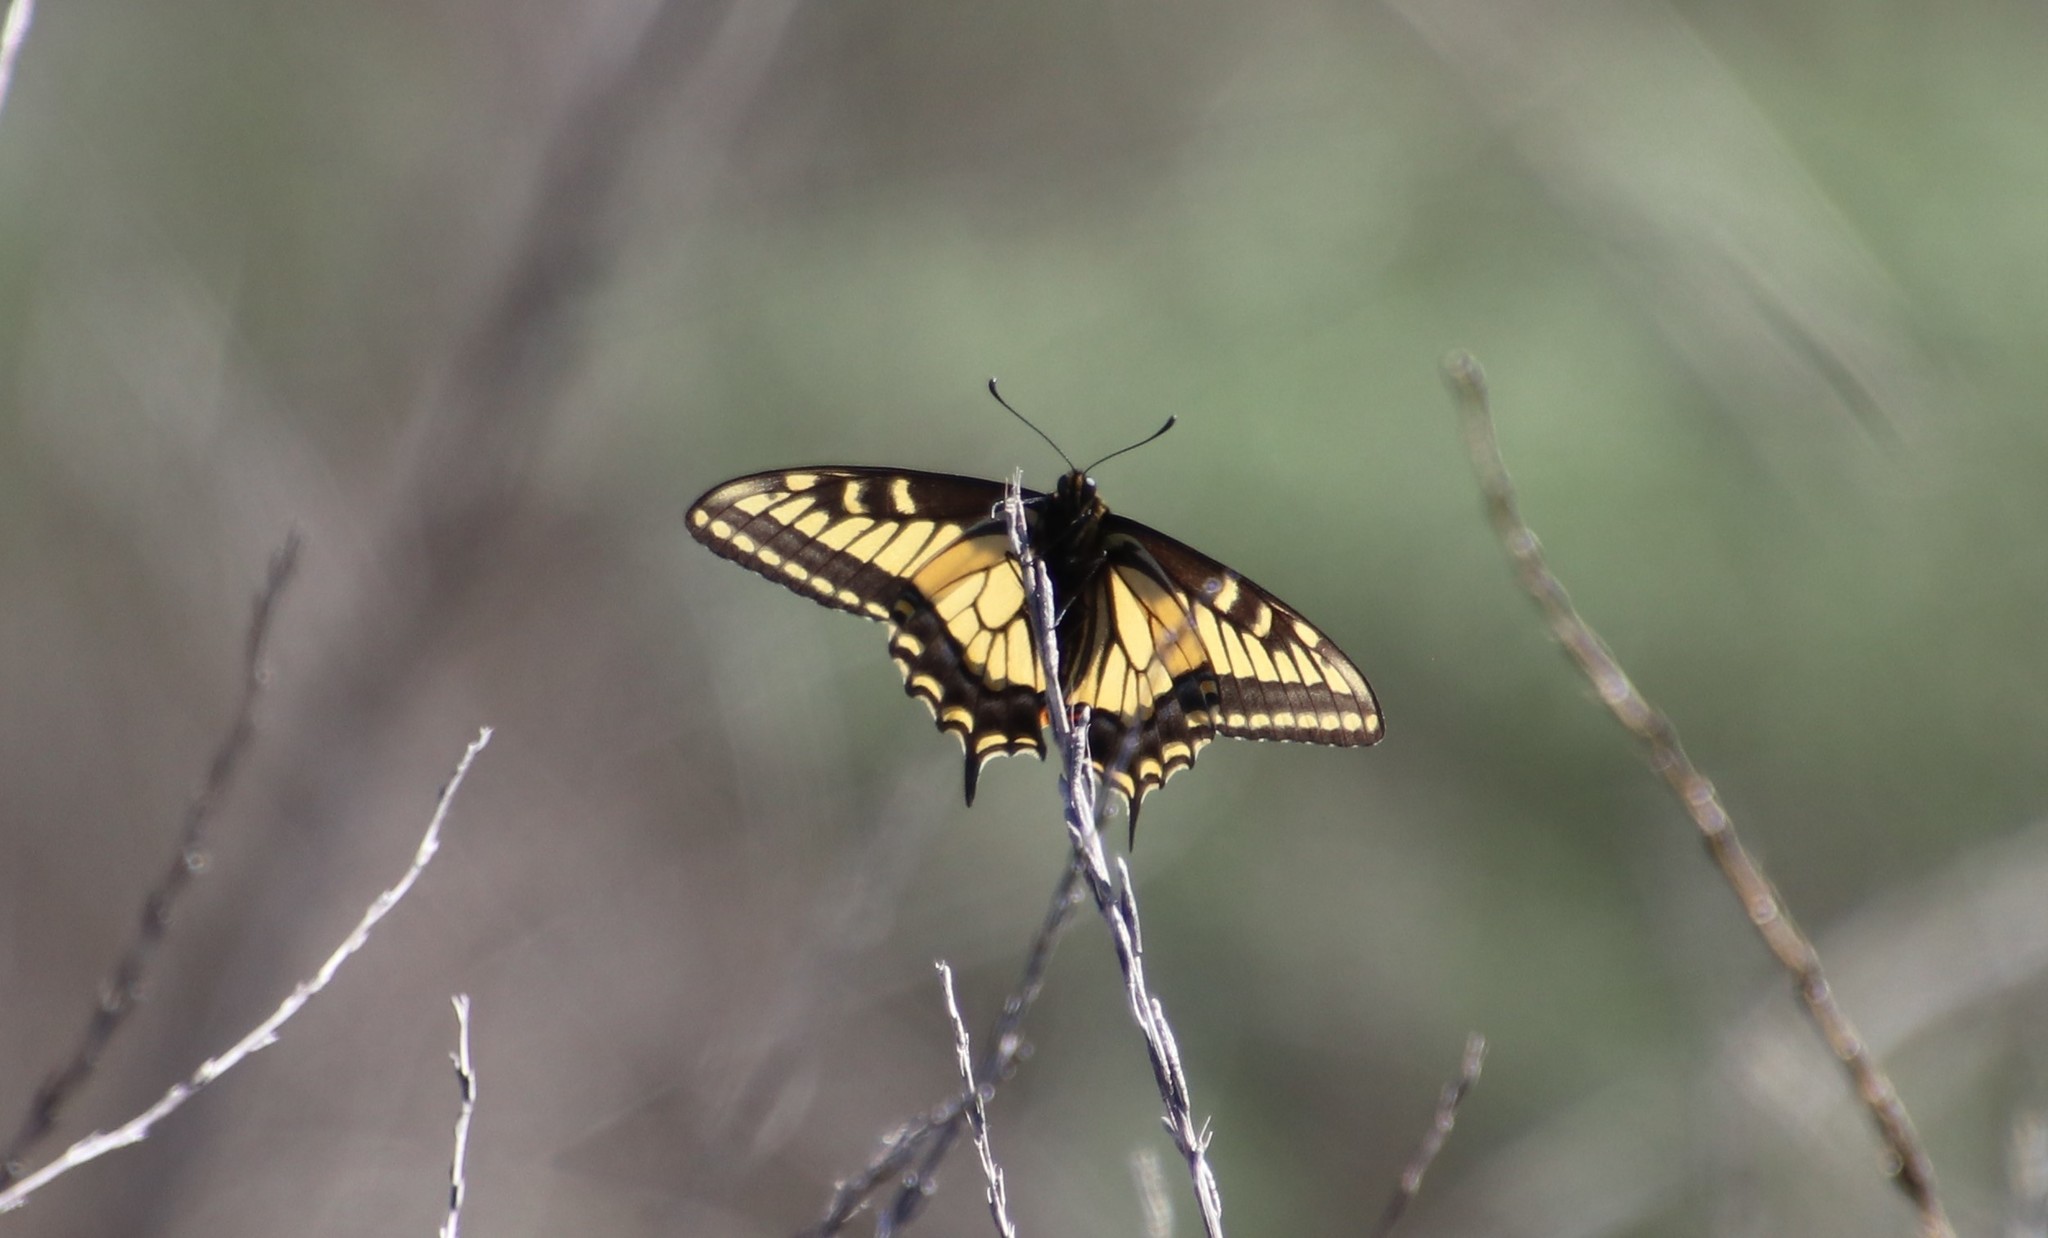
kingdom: Animalia
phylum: Arthropoda
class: Insecta
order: Lepidoptera
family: Papilionidae
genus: Papilio
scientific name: Papilio zelicaon
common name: Anise swallowtail
